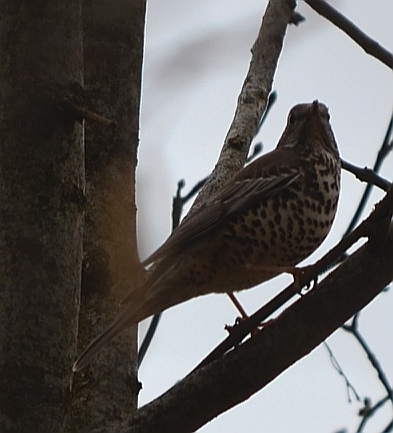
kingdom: Animalia
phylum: Chordata
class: Aves
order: Passeriformes
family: Turdidae
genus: Turdus
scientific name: Turdus viscivorus
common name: Mistle thrush
